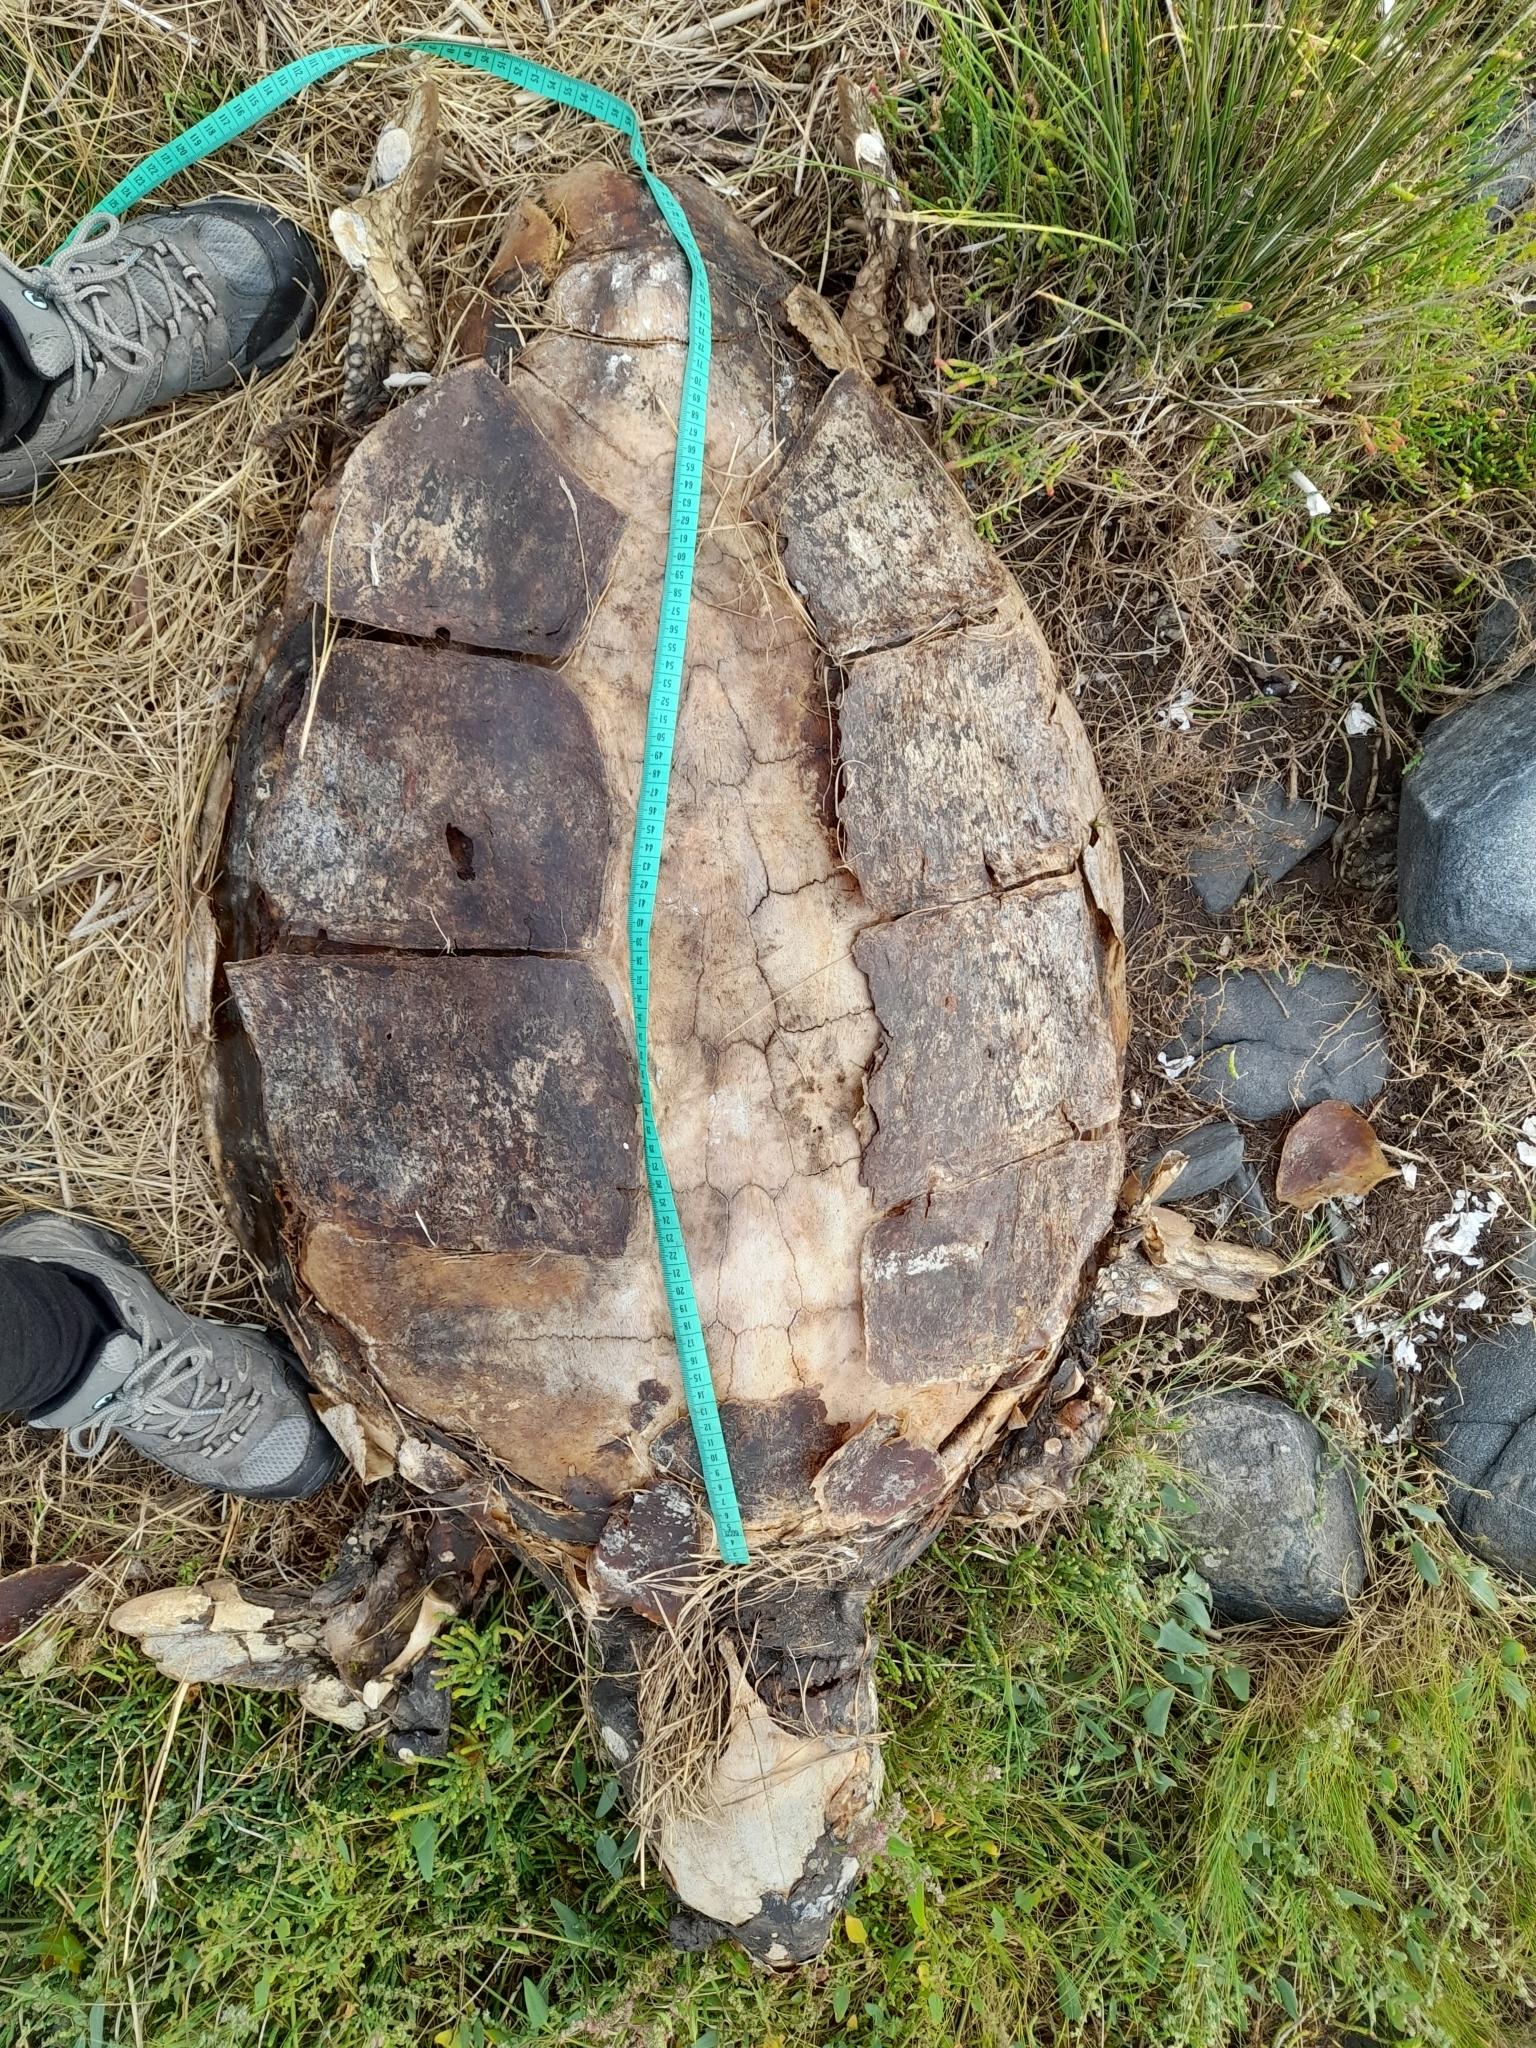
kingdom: Animalia
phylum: Chordata
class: Testudines
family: Cheloniidae
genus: Caretta
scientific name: Caretta caretta
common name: Loggerhead sea turtle
